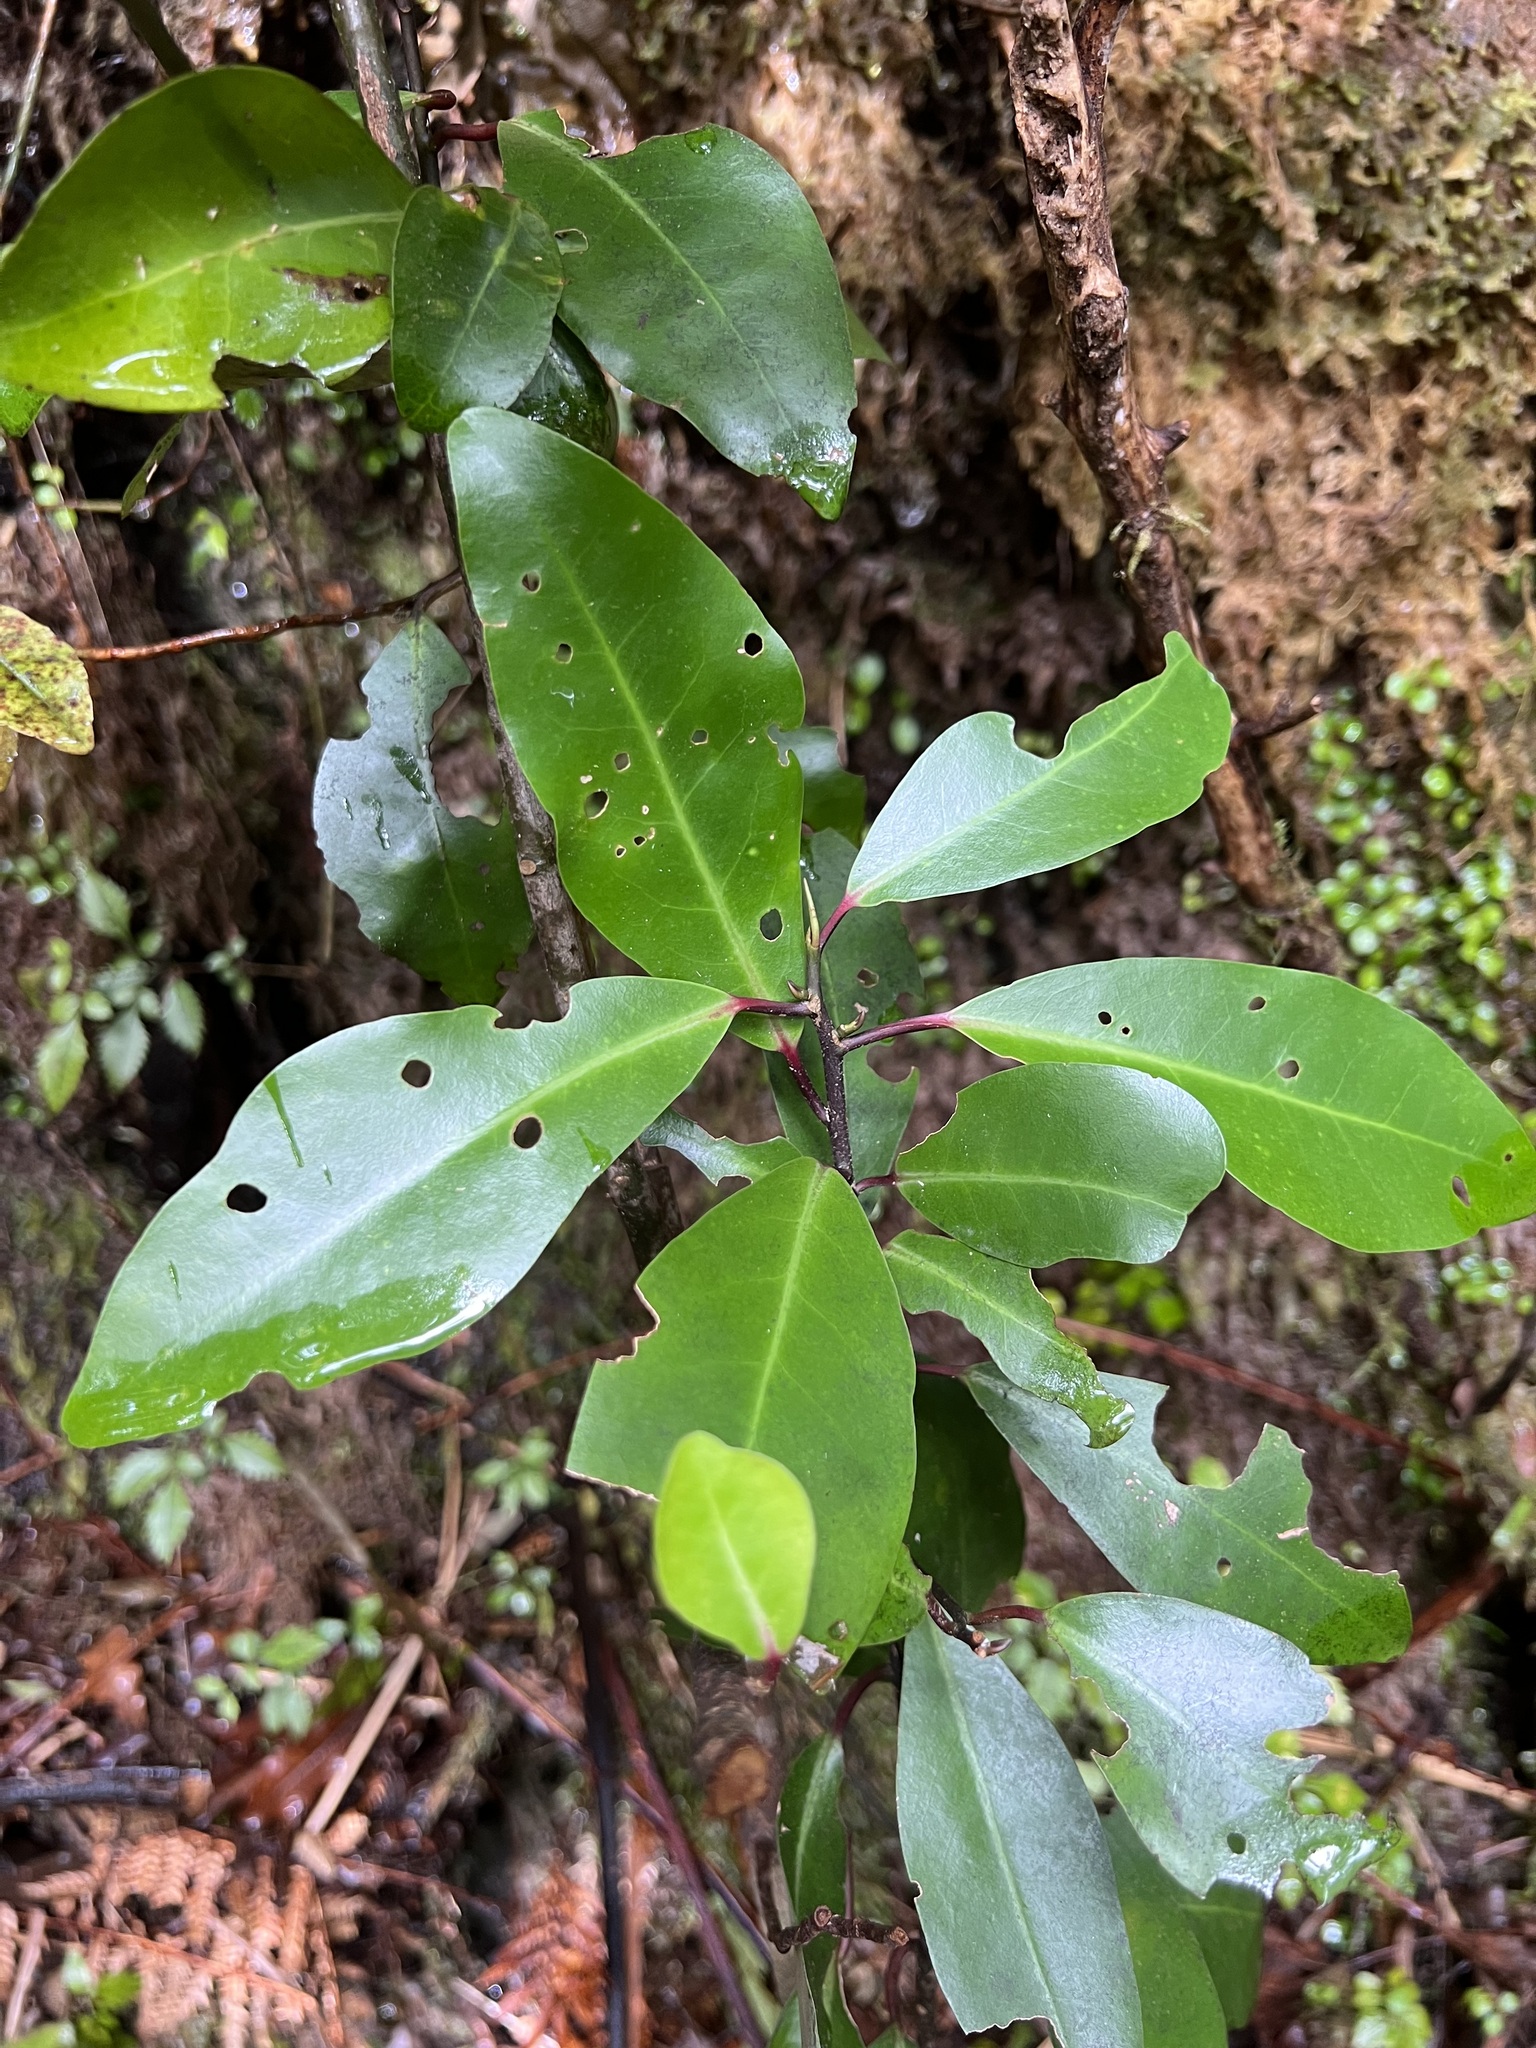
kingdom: Plantae
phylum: Tracheophyta
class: Magnoliopsida
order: Canellales
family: Winteraceae
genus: Pseudowintera
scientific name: Pseudowintera axillaris
